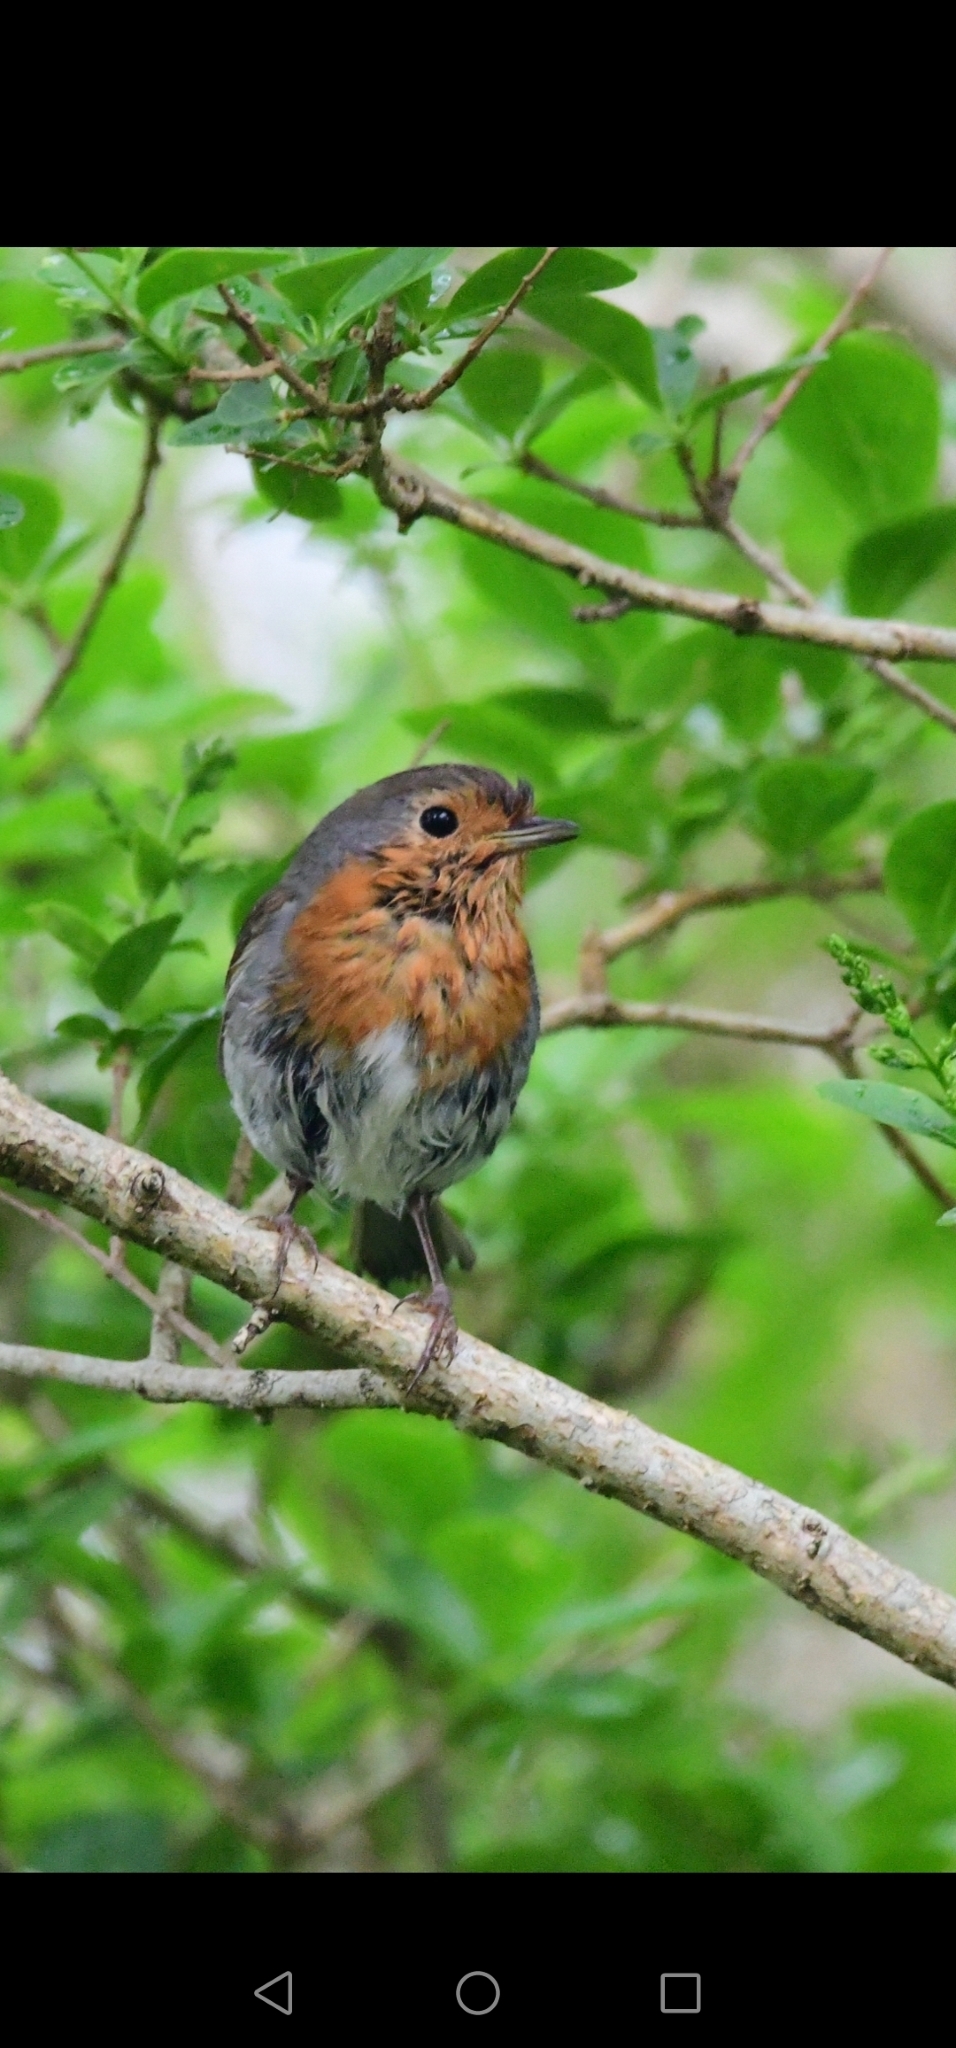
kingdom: Animalia
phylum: Chordata
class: Aves
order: Passeriformes
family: Muscicapidae
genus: Erithacus
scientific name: Erithacus rubecula
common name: European robin
